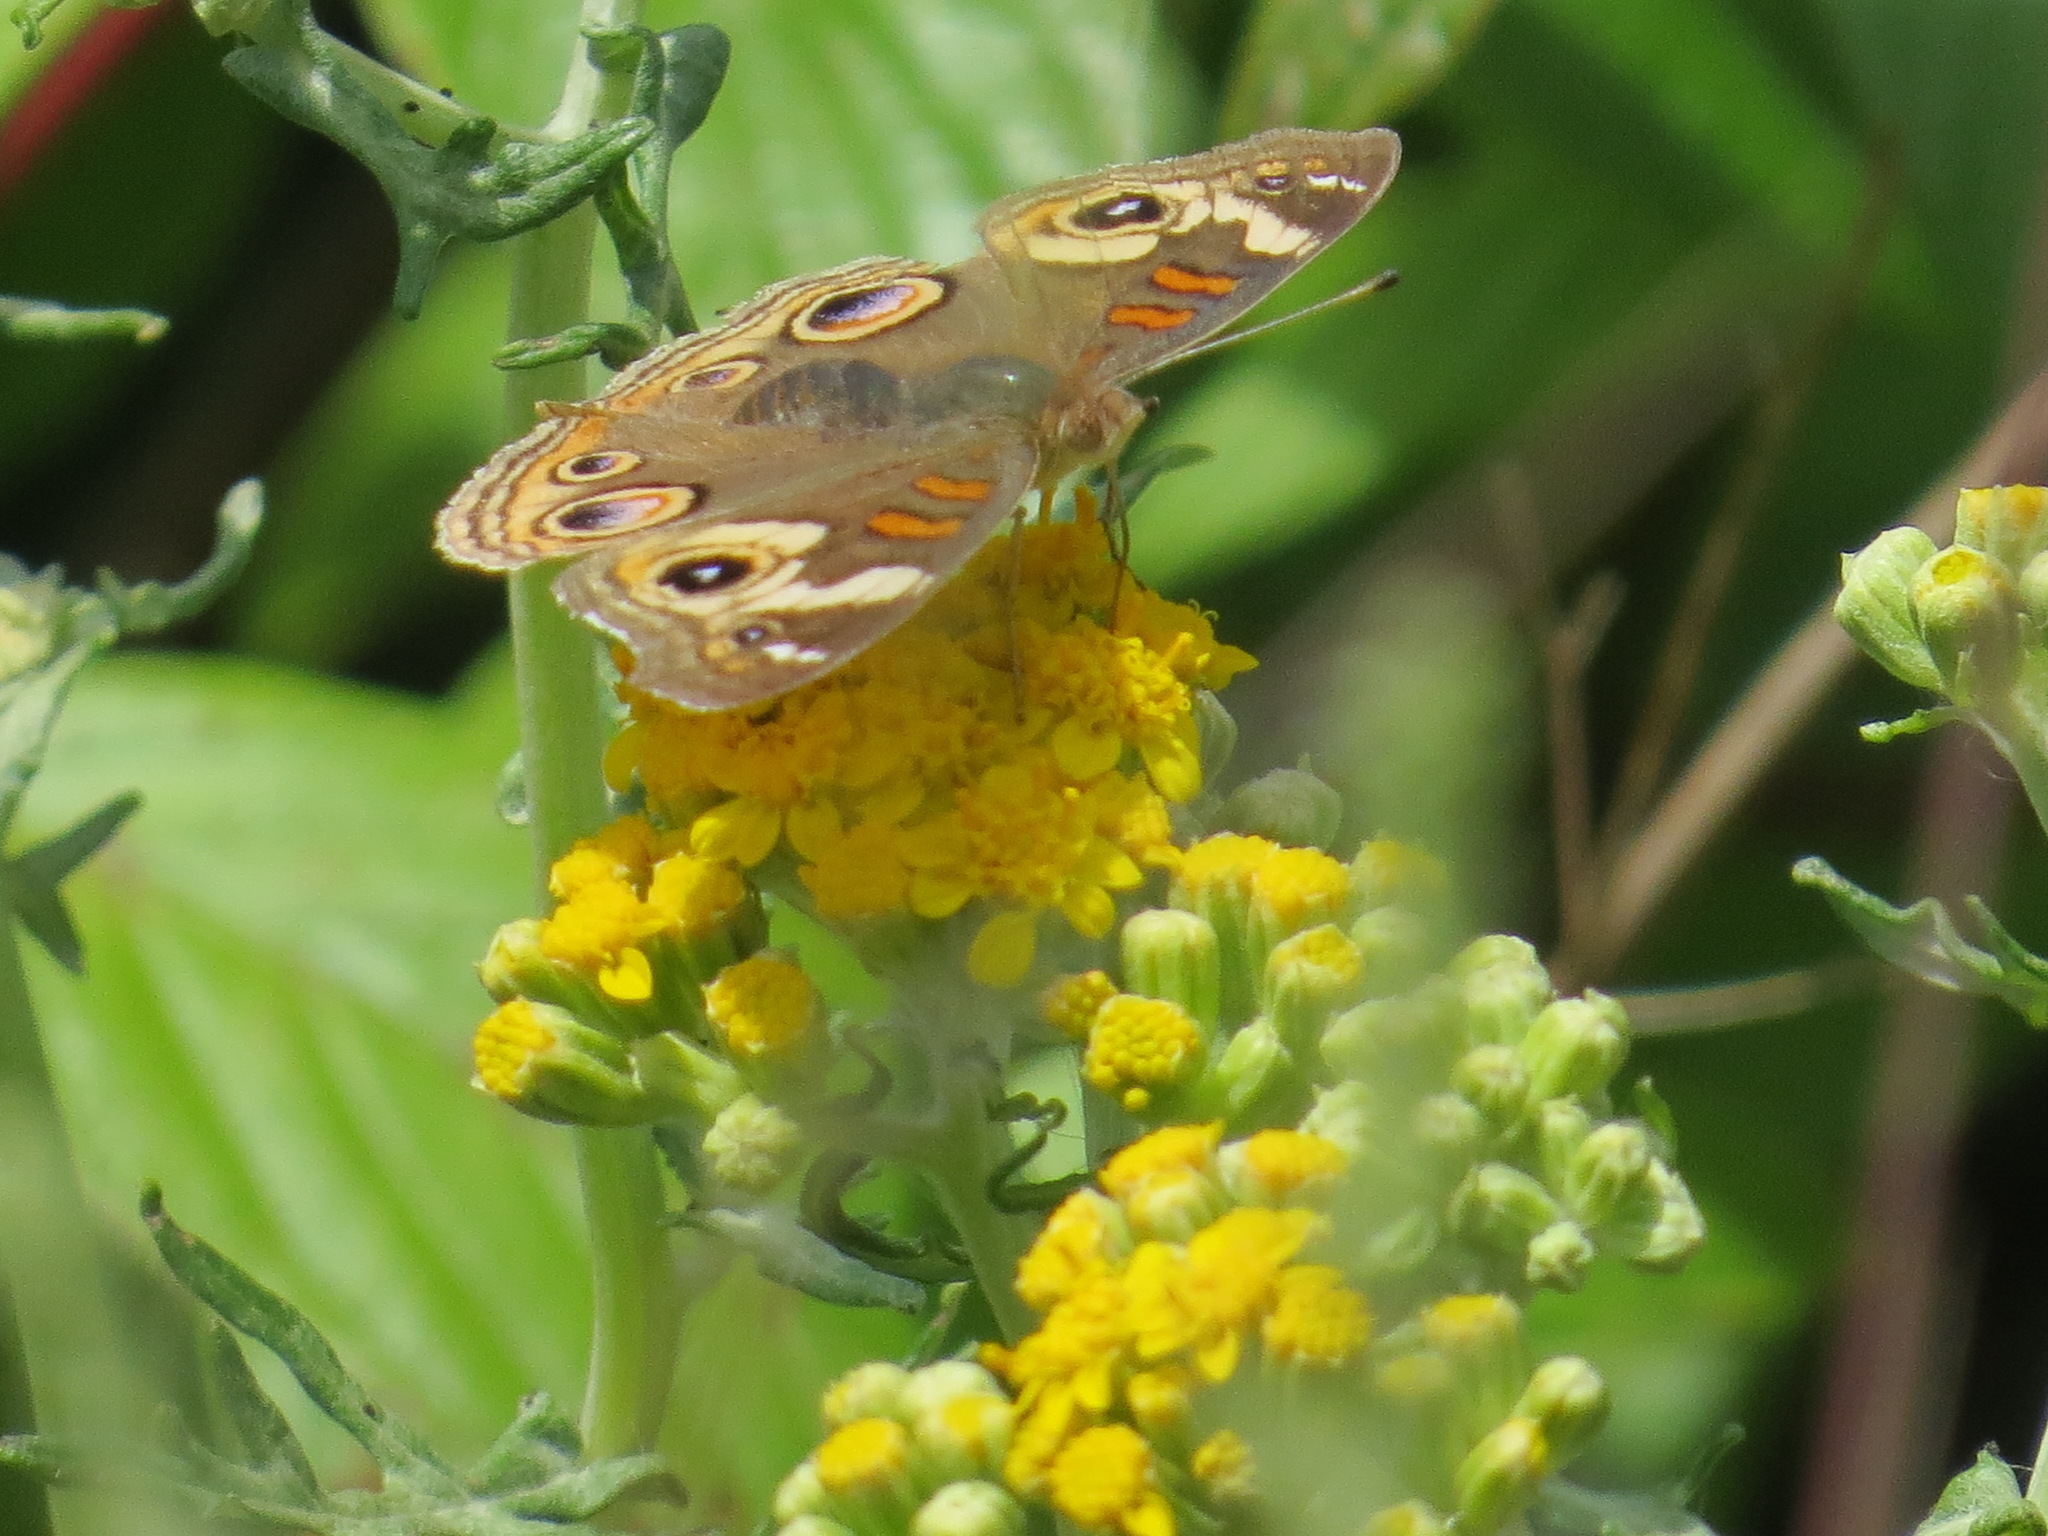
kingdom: Animalia
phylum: Arthropoda
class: Insecta
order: Lepidoptera
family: Nymphalidae
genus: Junonia
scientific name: Junonia grisea
